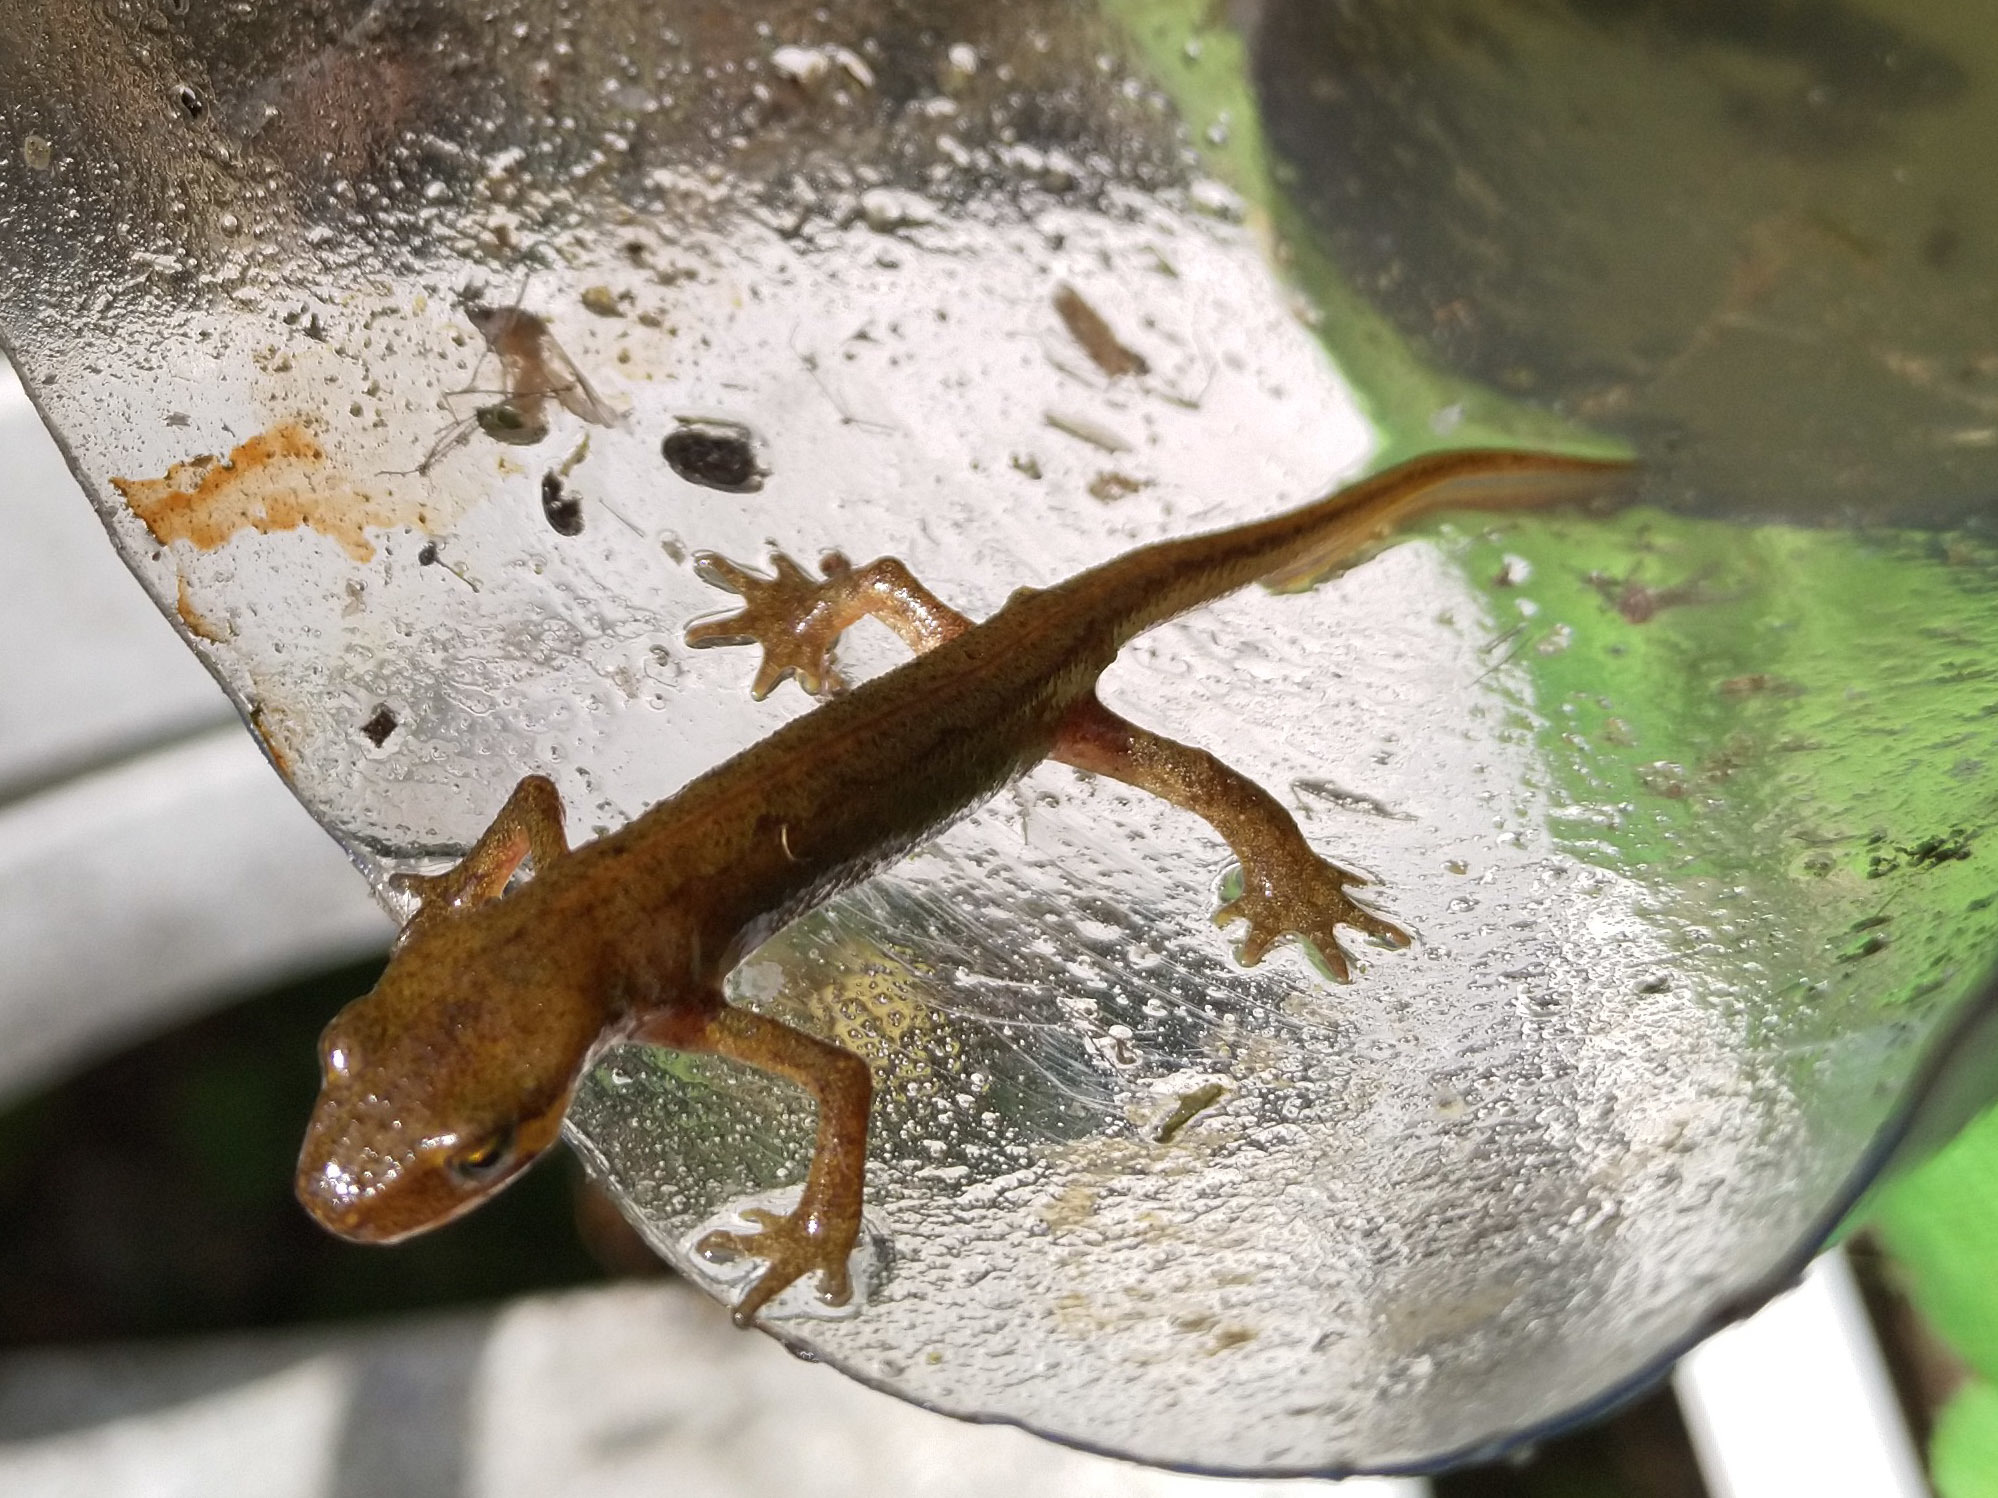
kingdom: Animalia
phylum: Chordata
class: Amphibia
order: Caudata
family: Salamandridae
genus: Lissotriton
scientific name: Lissotriton helveticus
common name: Palmate newt
